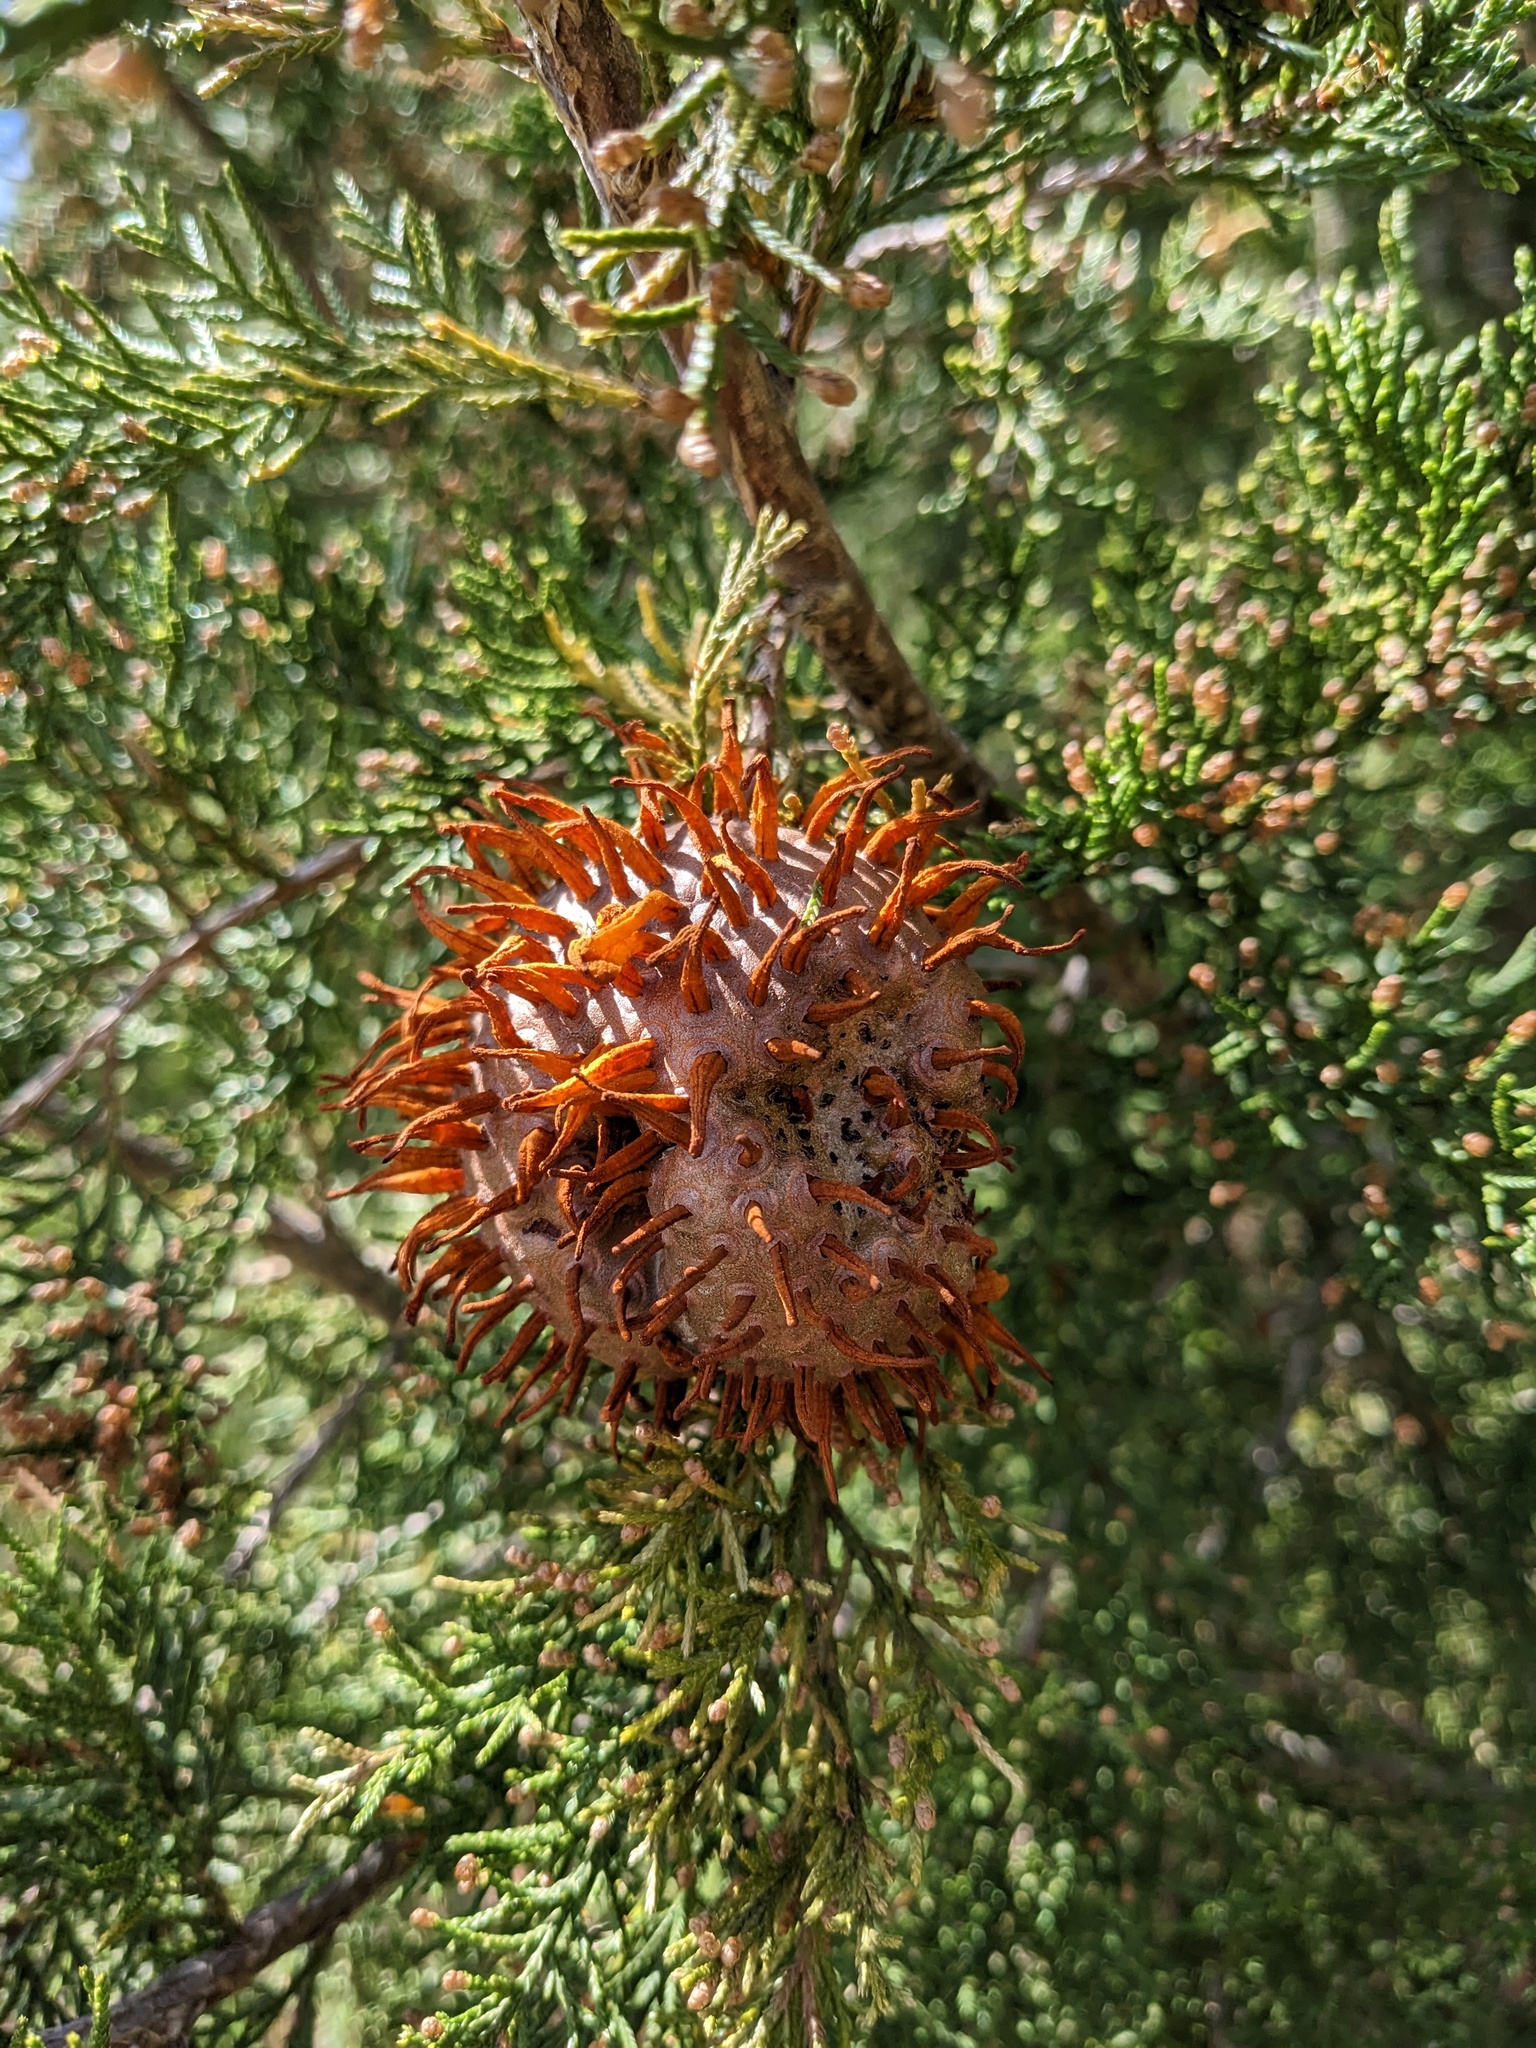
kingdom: Fungi
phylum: Basidiomycota
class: Pucciniomycetes
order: Pucciniales
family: Gymnosporangiaceae
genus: Gymnosporangium
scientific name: Gymnosporangium juniperi-virginianae
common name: Juniper-apple rust
